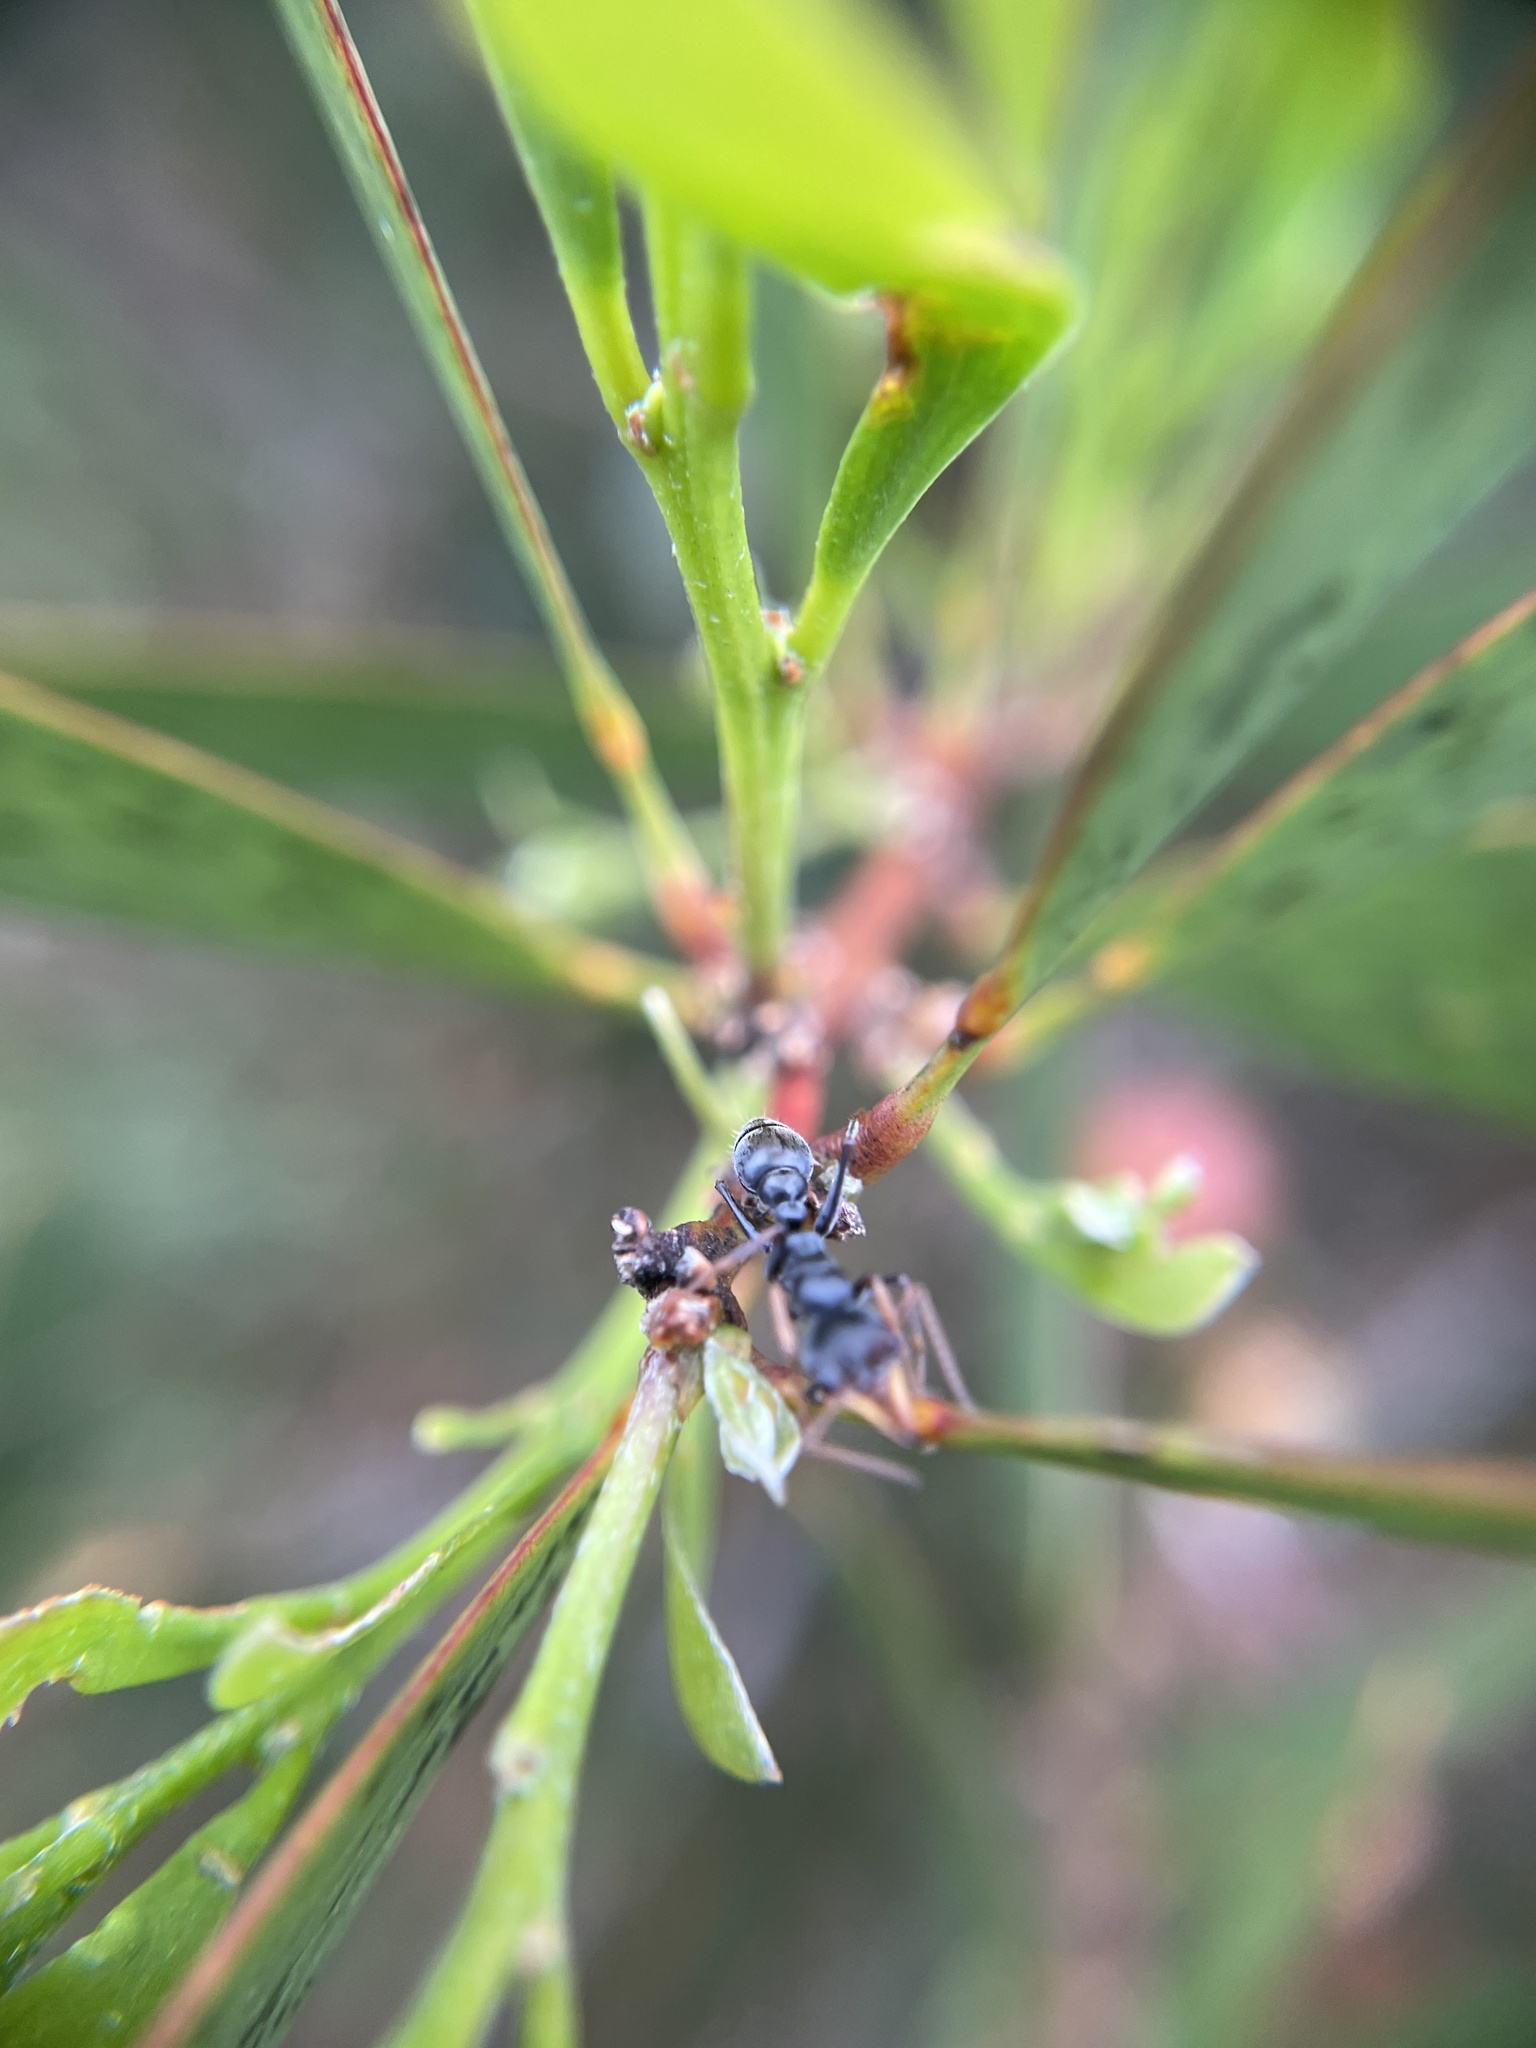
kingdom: Animalia
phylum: Arthropoda
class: Insecta
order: Hymenoptera
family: Formicidae
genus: Myrmecia
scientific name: Myrmecia pilosula
